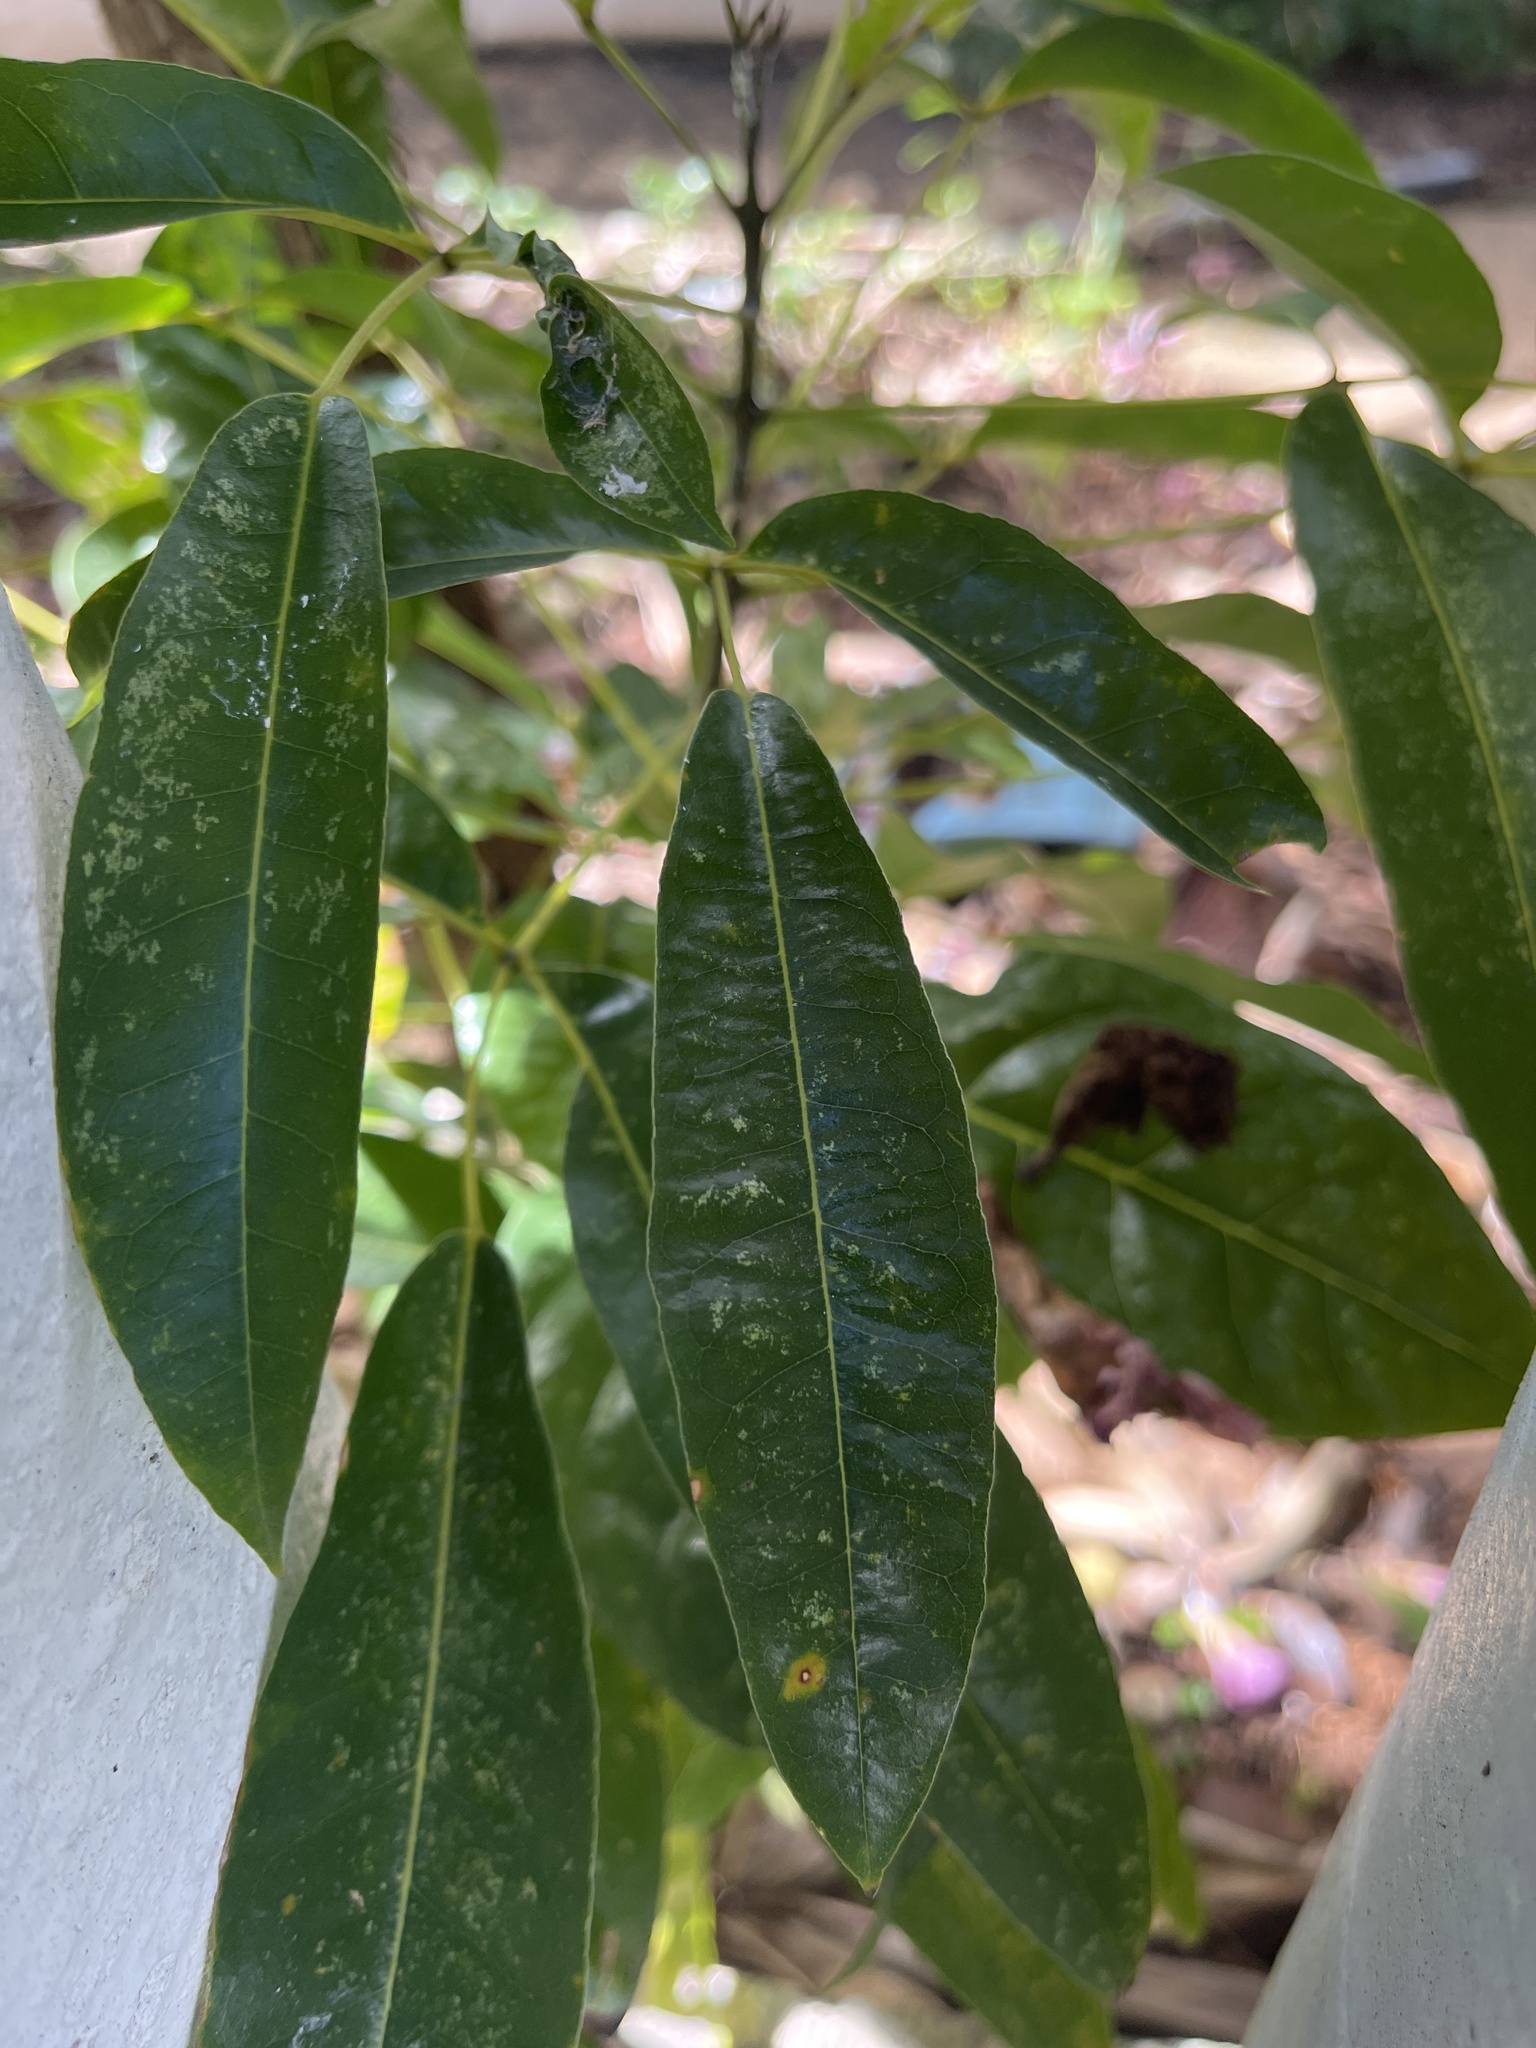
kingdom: Plantae
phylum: Tracheophyta
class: Magnoliopsida
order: Lamiales
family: Bignoniaceae
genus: Tabebuia
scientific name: Tabebuia heterophylla
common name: White cedar
